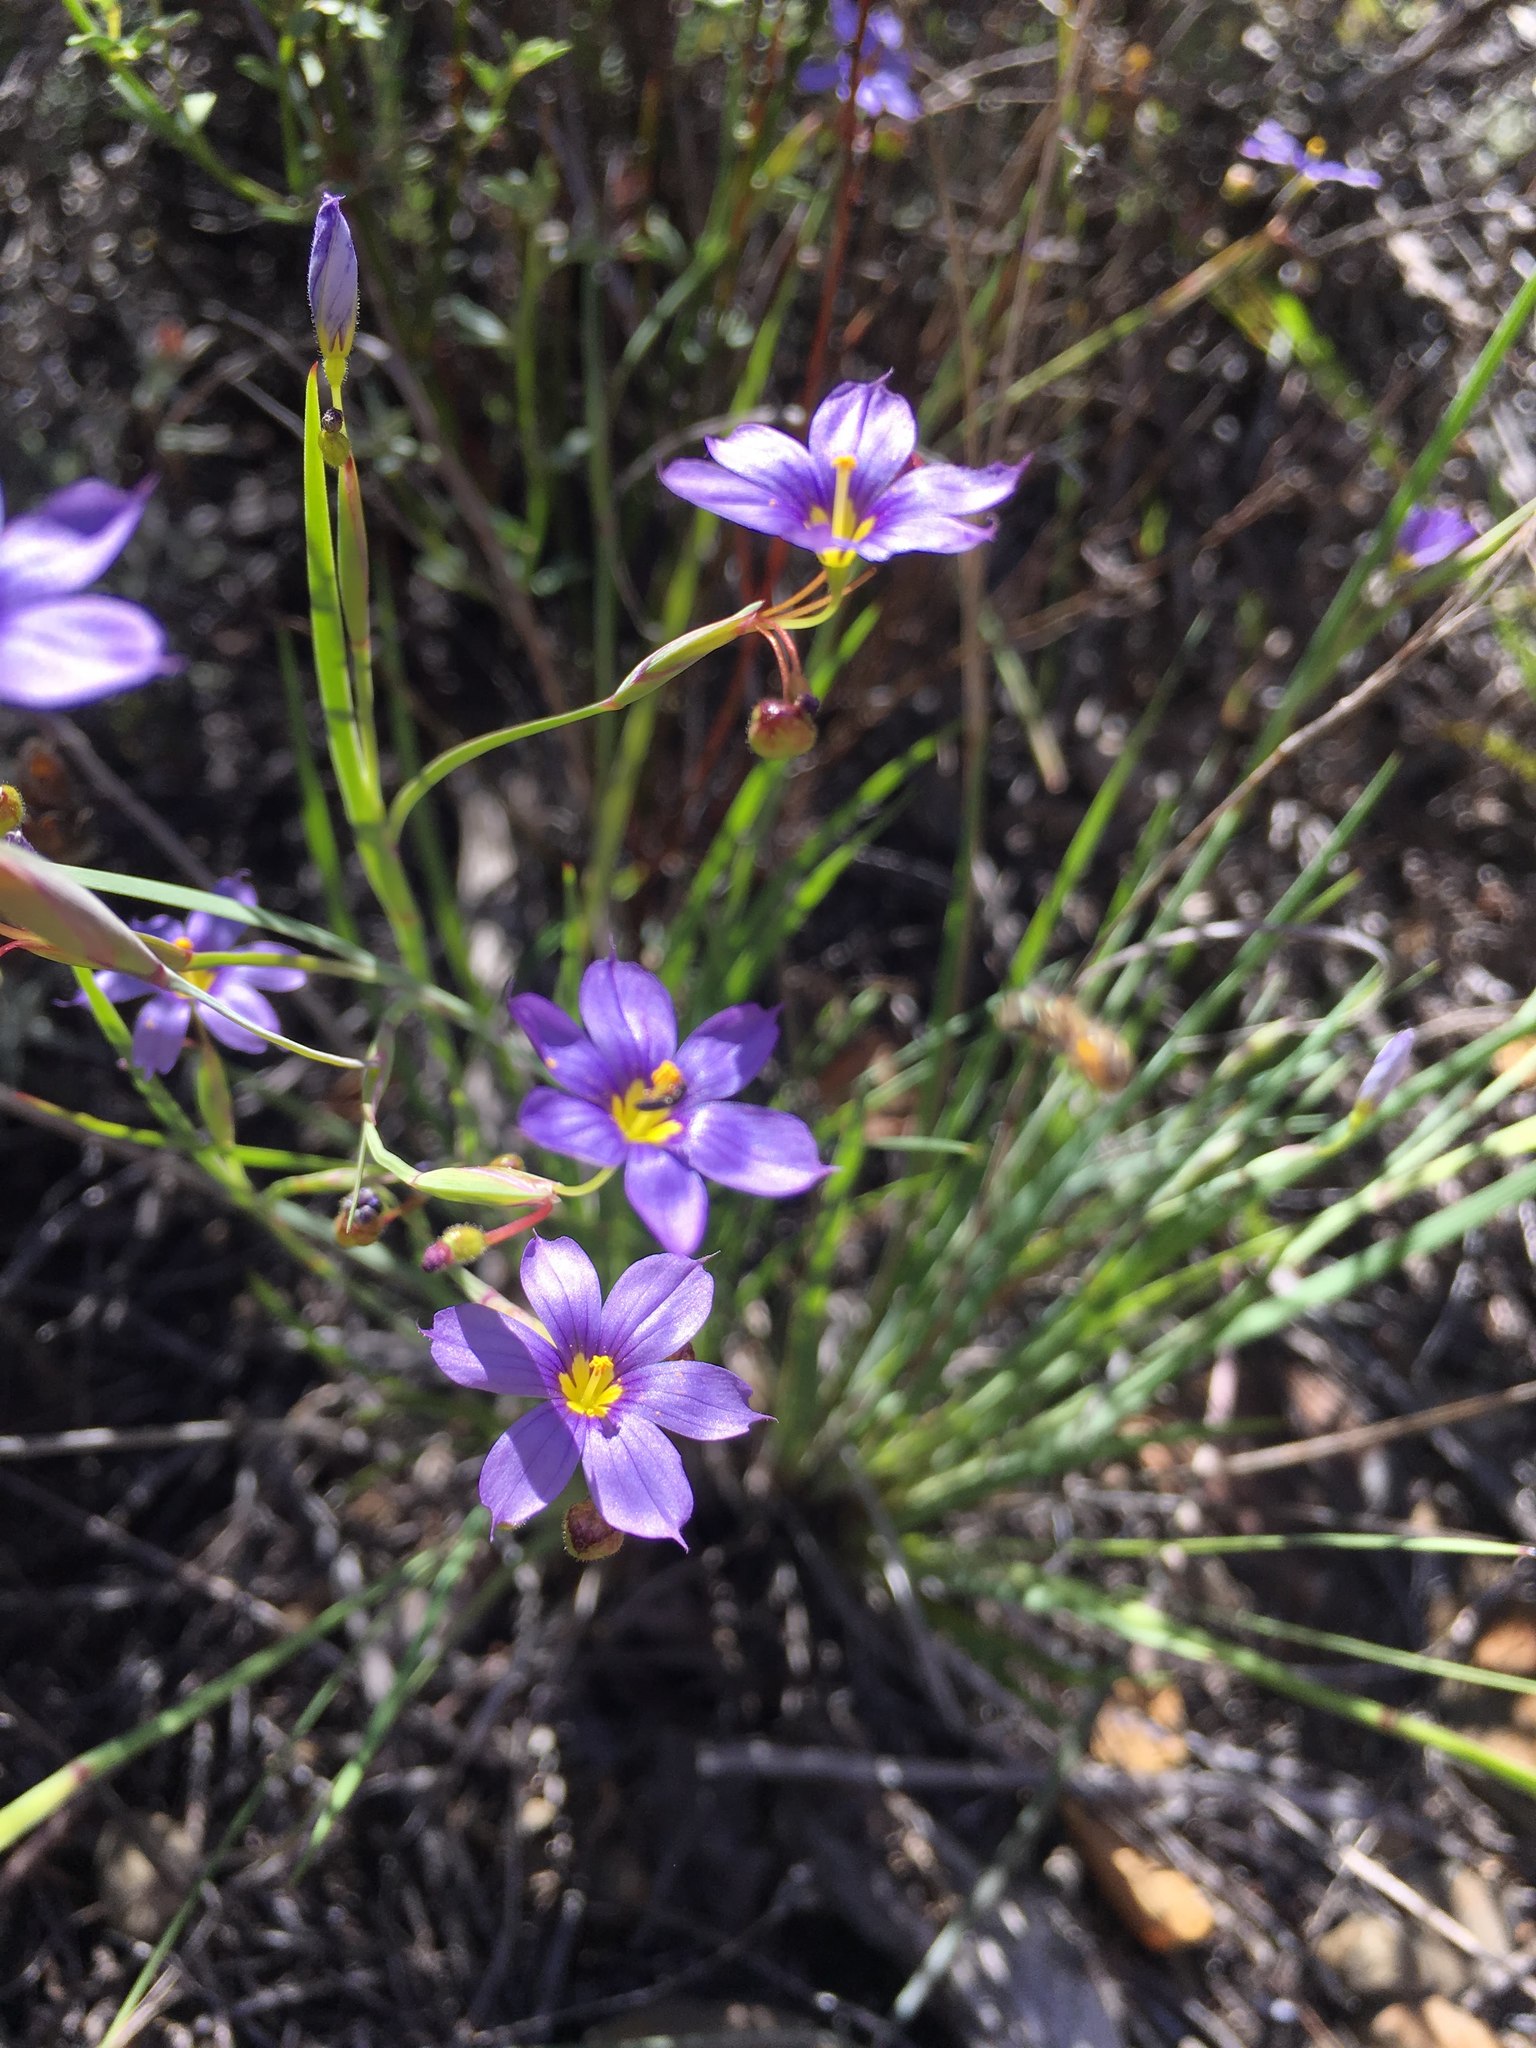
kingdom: Plantae
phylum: Tracheophyta
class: Liliopsida
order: Asparagales
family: Iridaceae
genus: Sisyrinchium
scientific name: Sisyrinchium bellum
